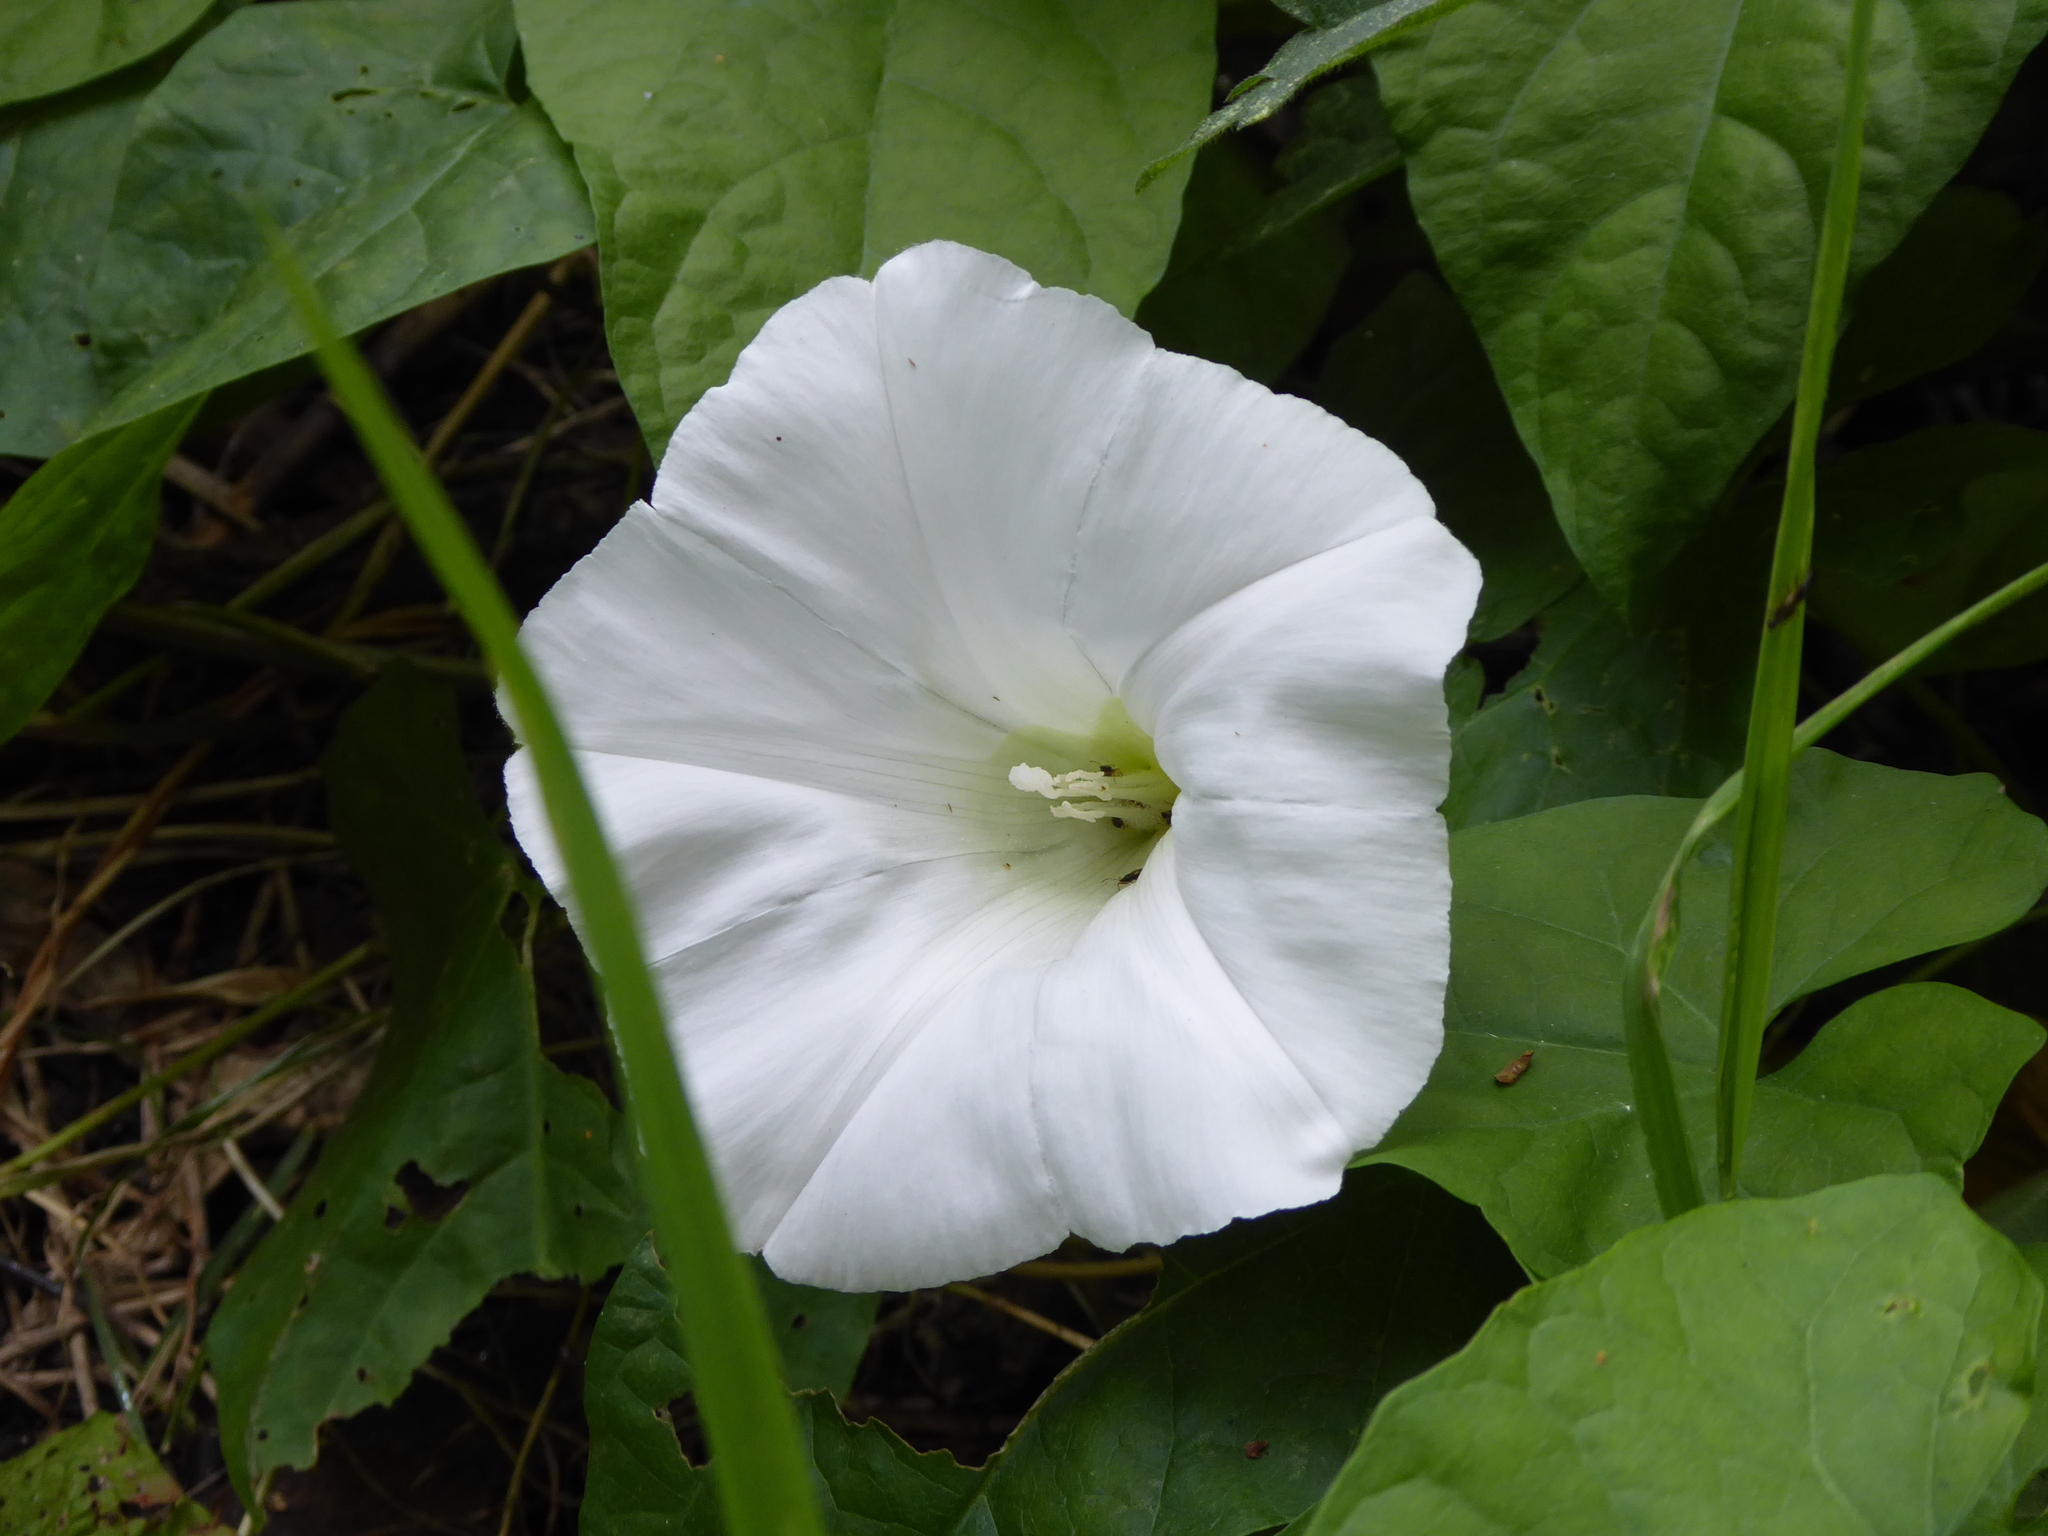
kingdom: Plantae
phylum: Tracheophyta
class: Magnoliopsida
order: Solanales
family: Convolvulaceae
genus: Calystegia
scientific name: Calystegia silvatica
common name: Large bindweed
